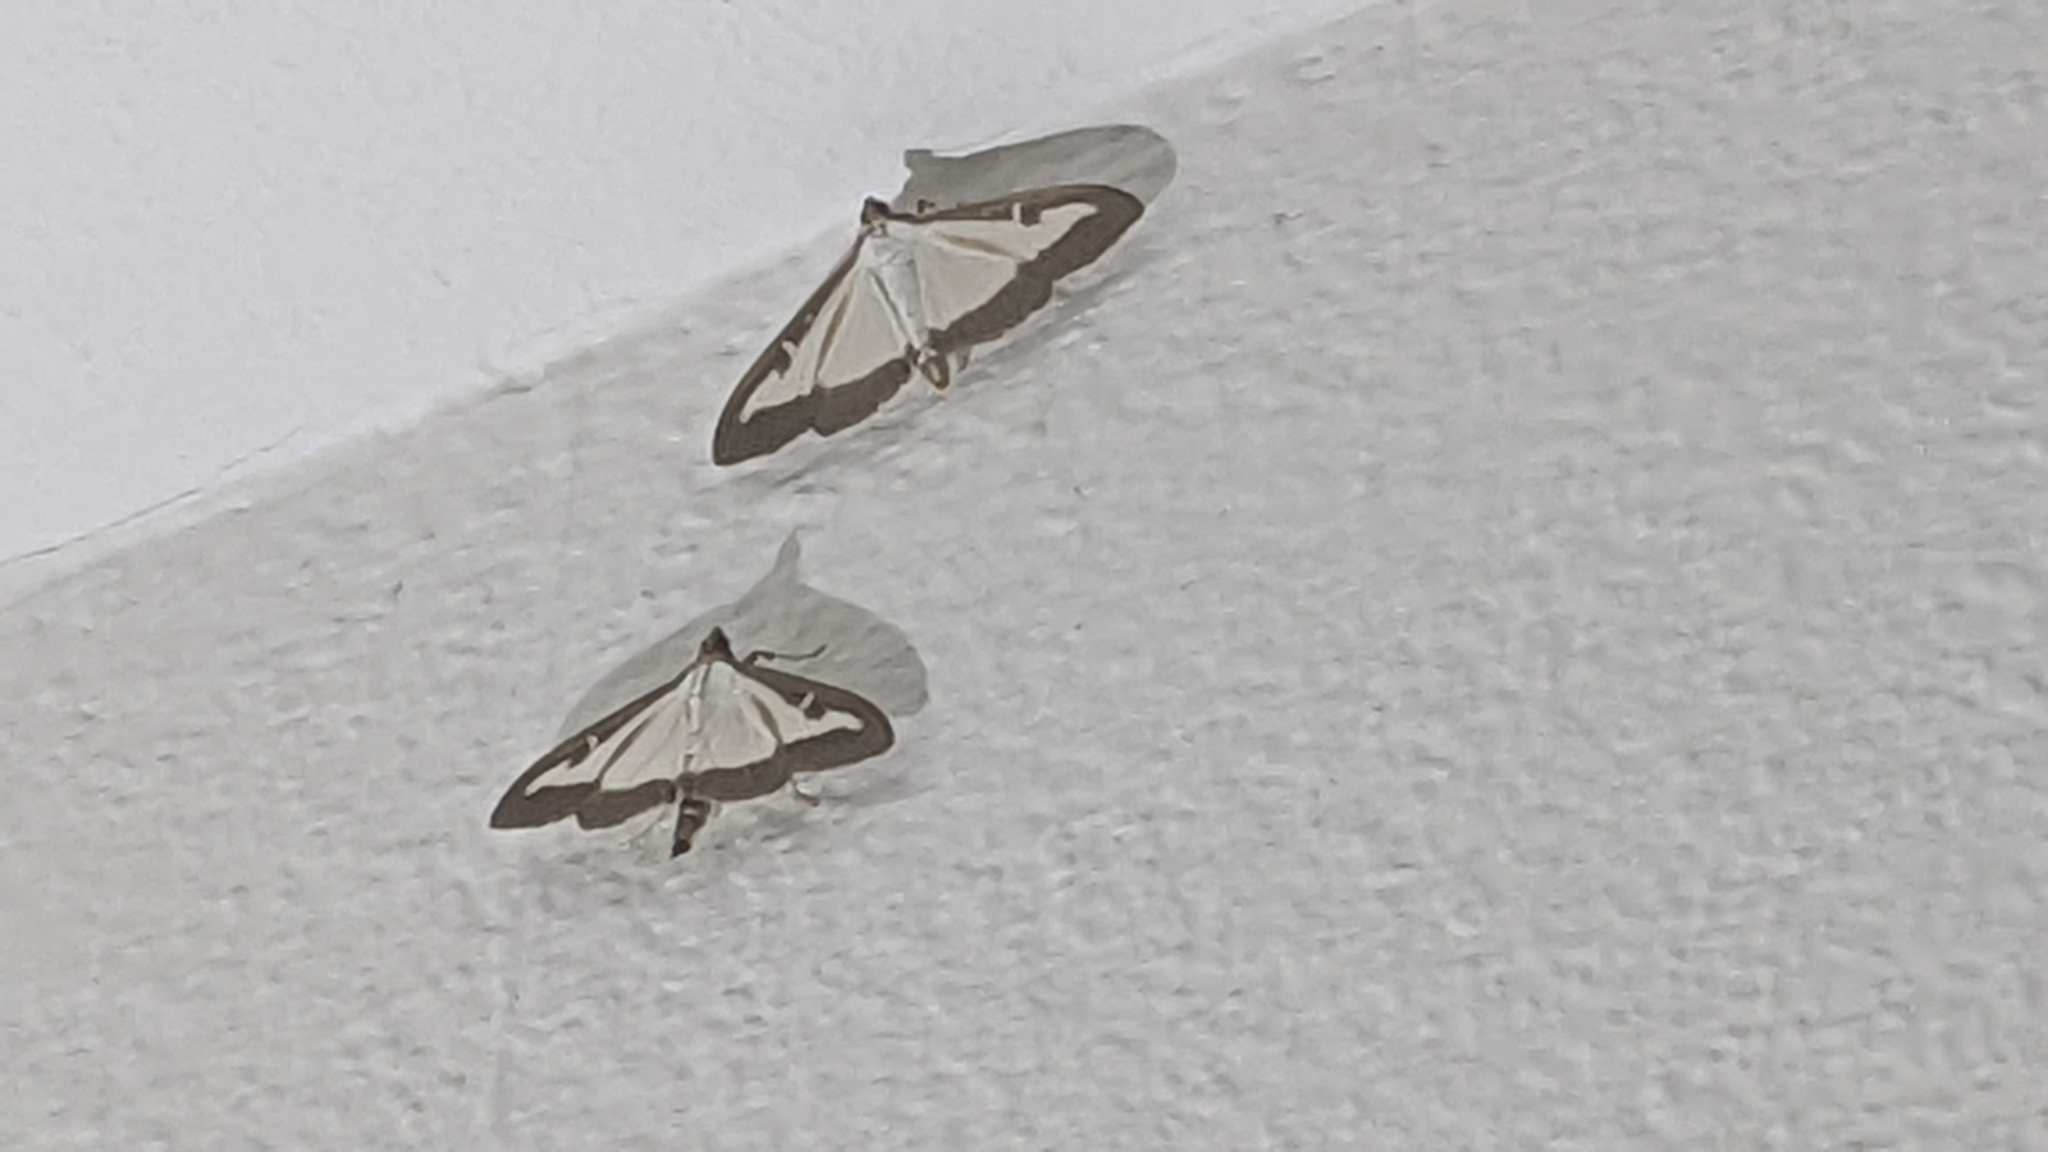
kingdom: Animalia
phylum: Arthropoda
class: Insecta
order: Lepidoptera
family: Crambidae
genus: Cydalima
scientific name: Cydalima perspectalis
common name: Box tree moth
